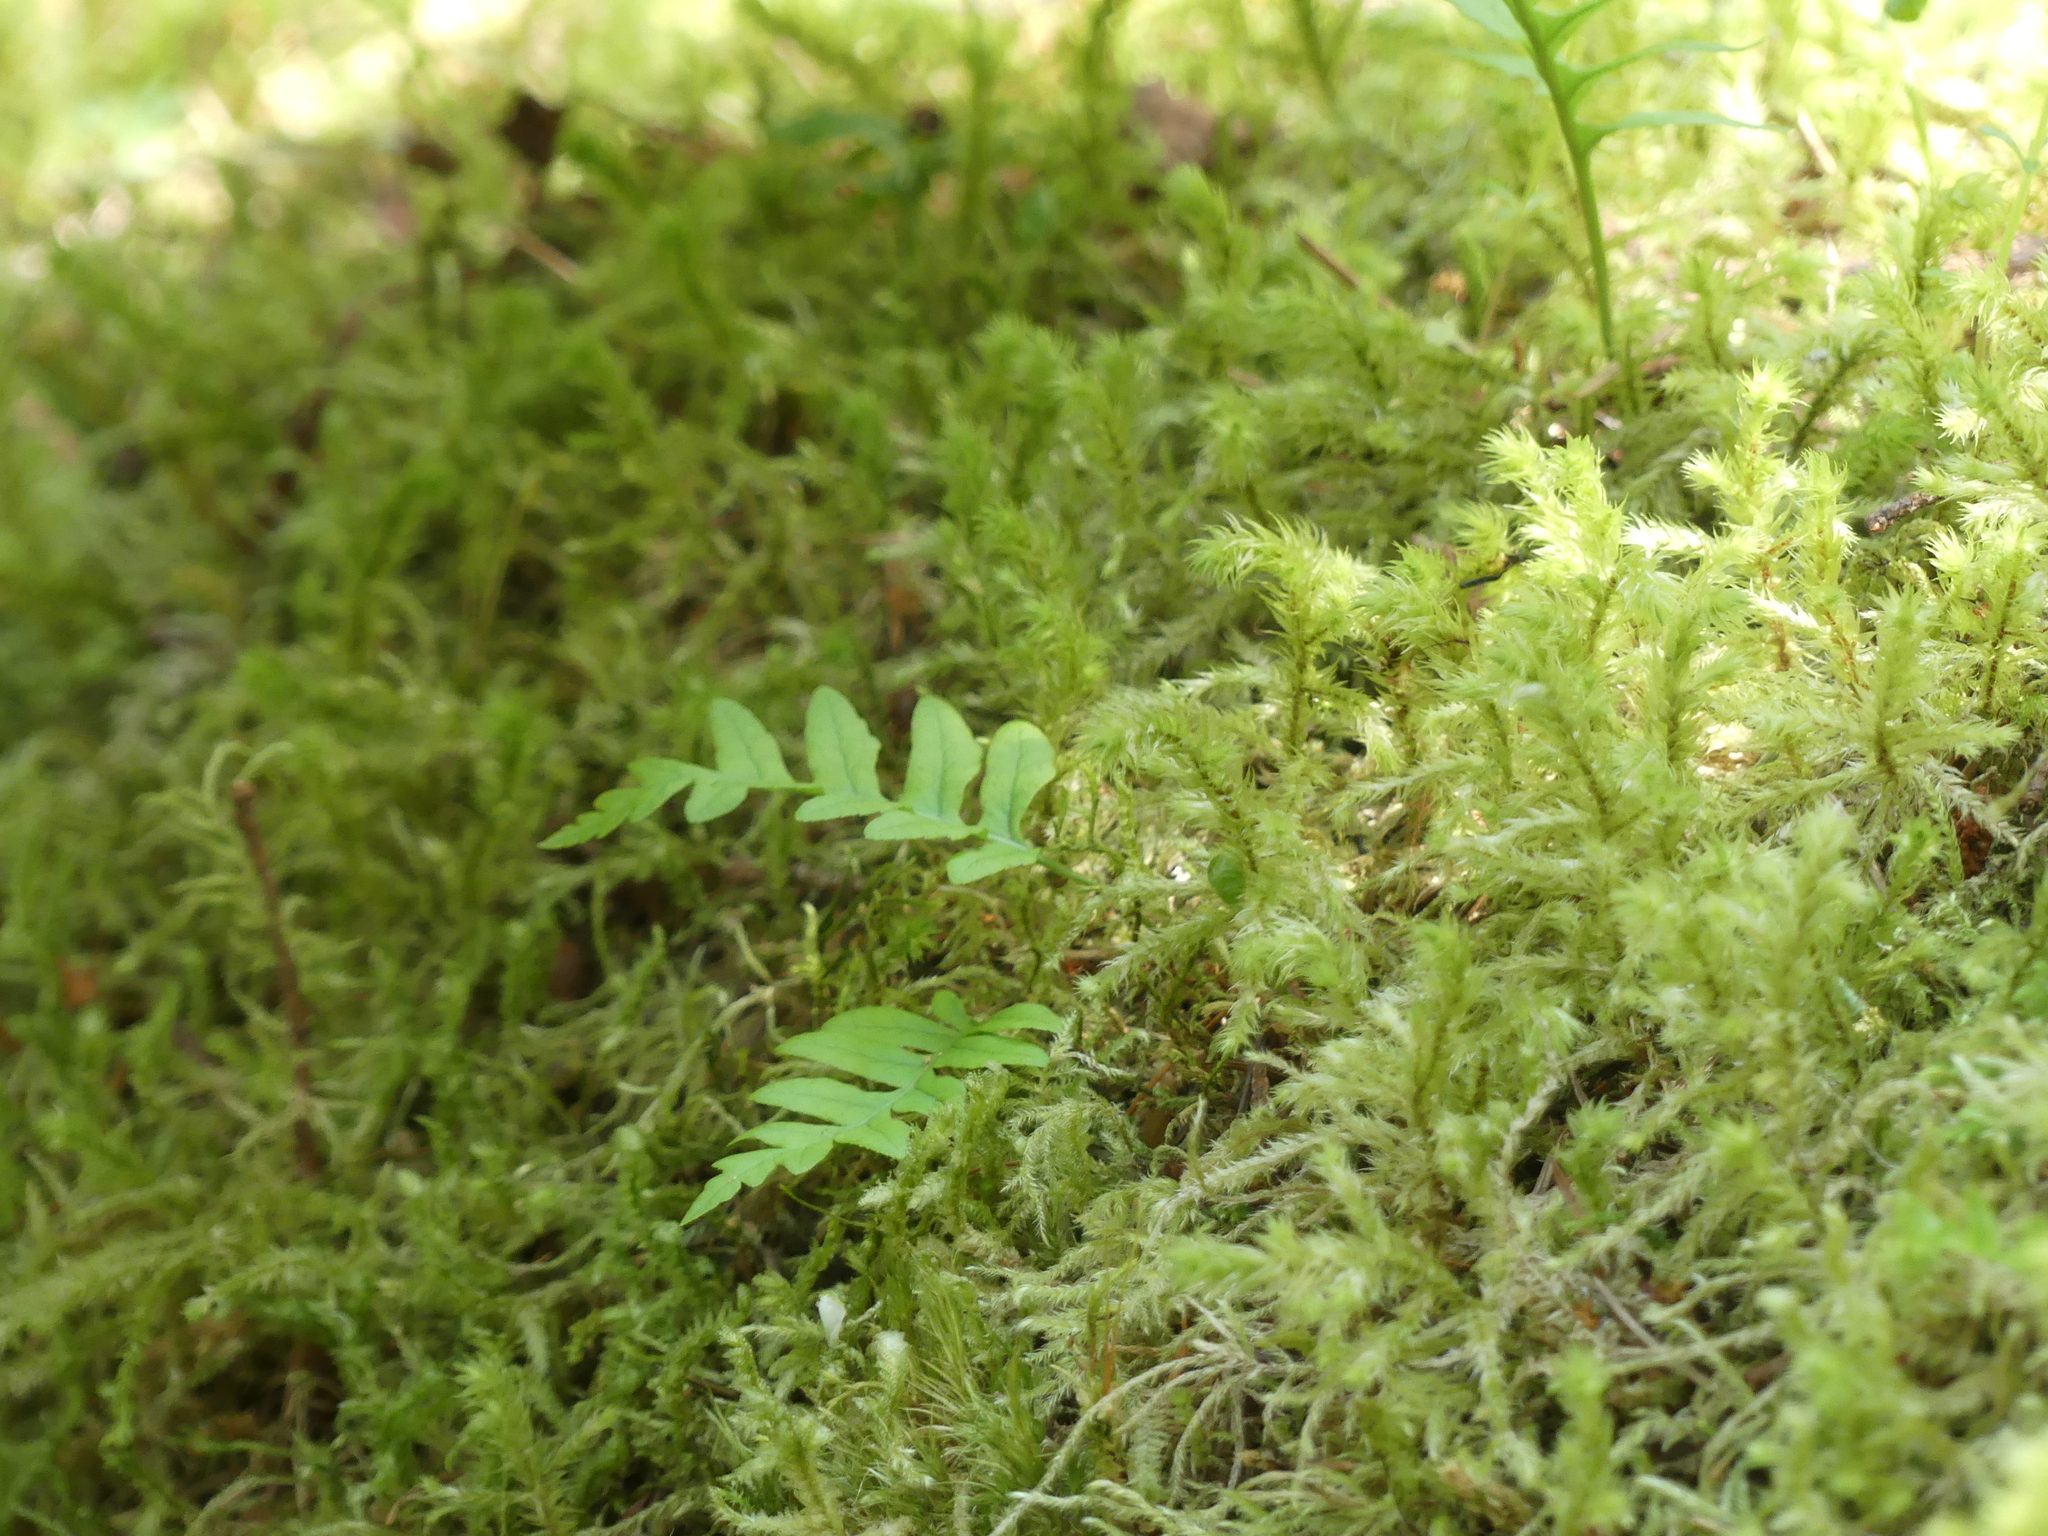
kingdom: Plantae
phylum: Tracheophyta
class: Polypodiopsida
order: Polypodiales
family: Polypodiaceae
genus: Polypodium
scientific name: Polypodium glycyrrhiza
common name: Licorice fern
